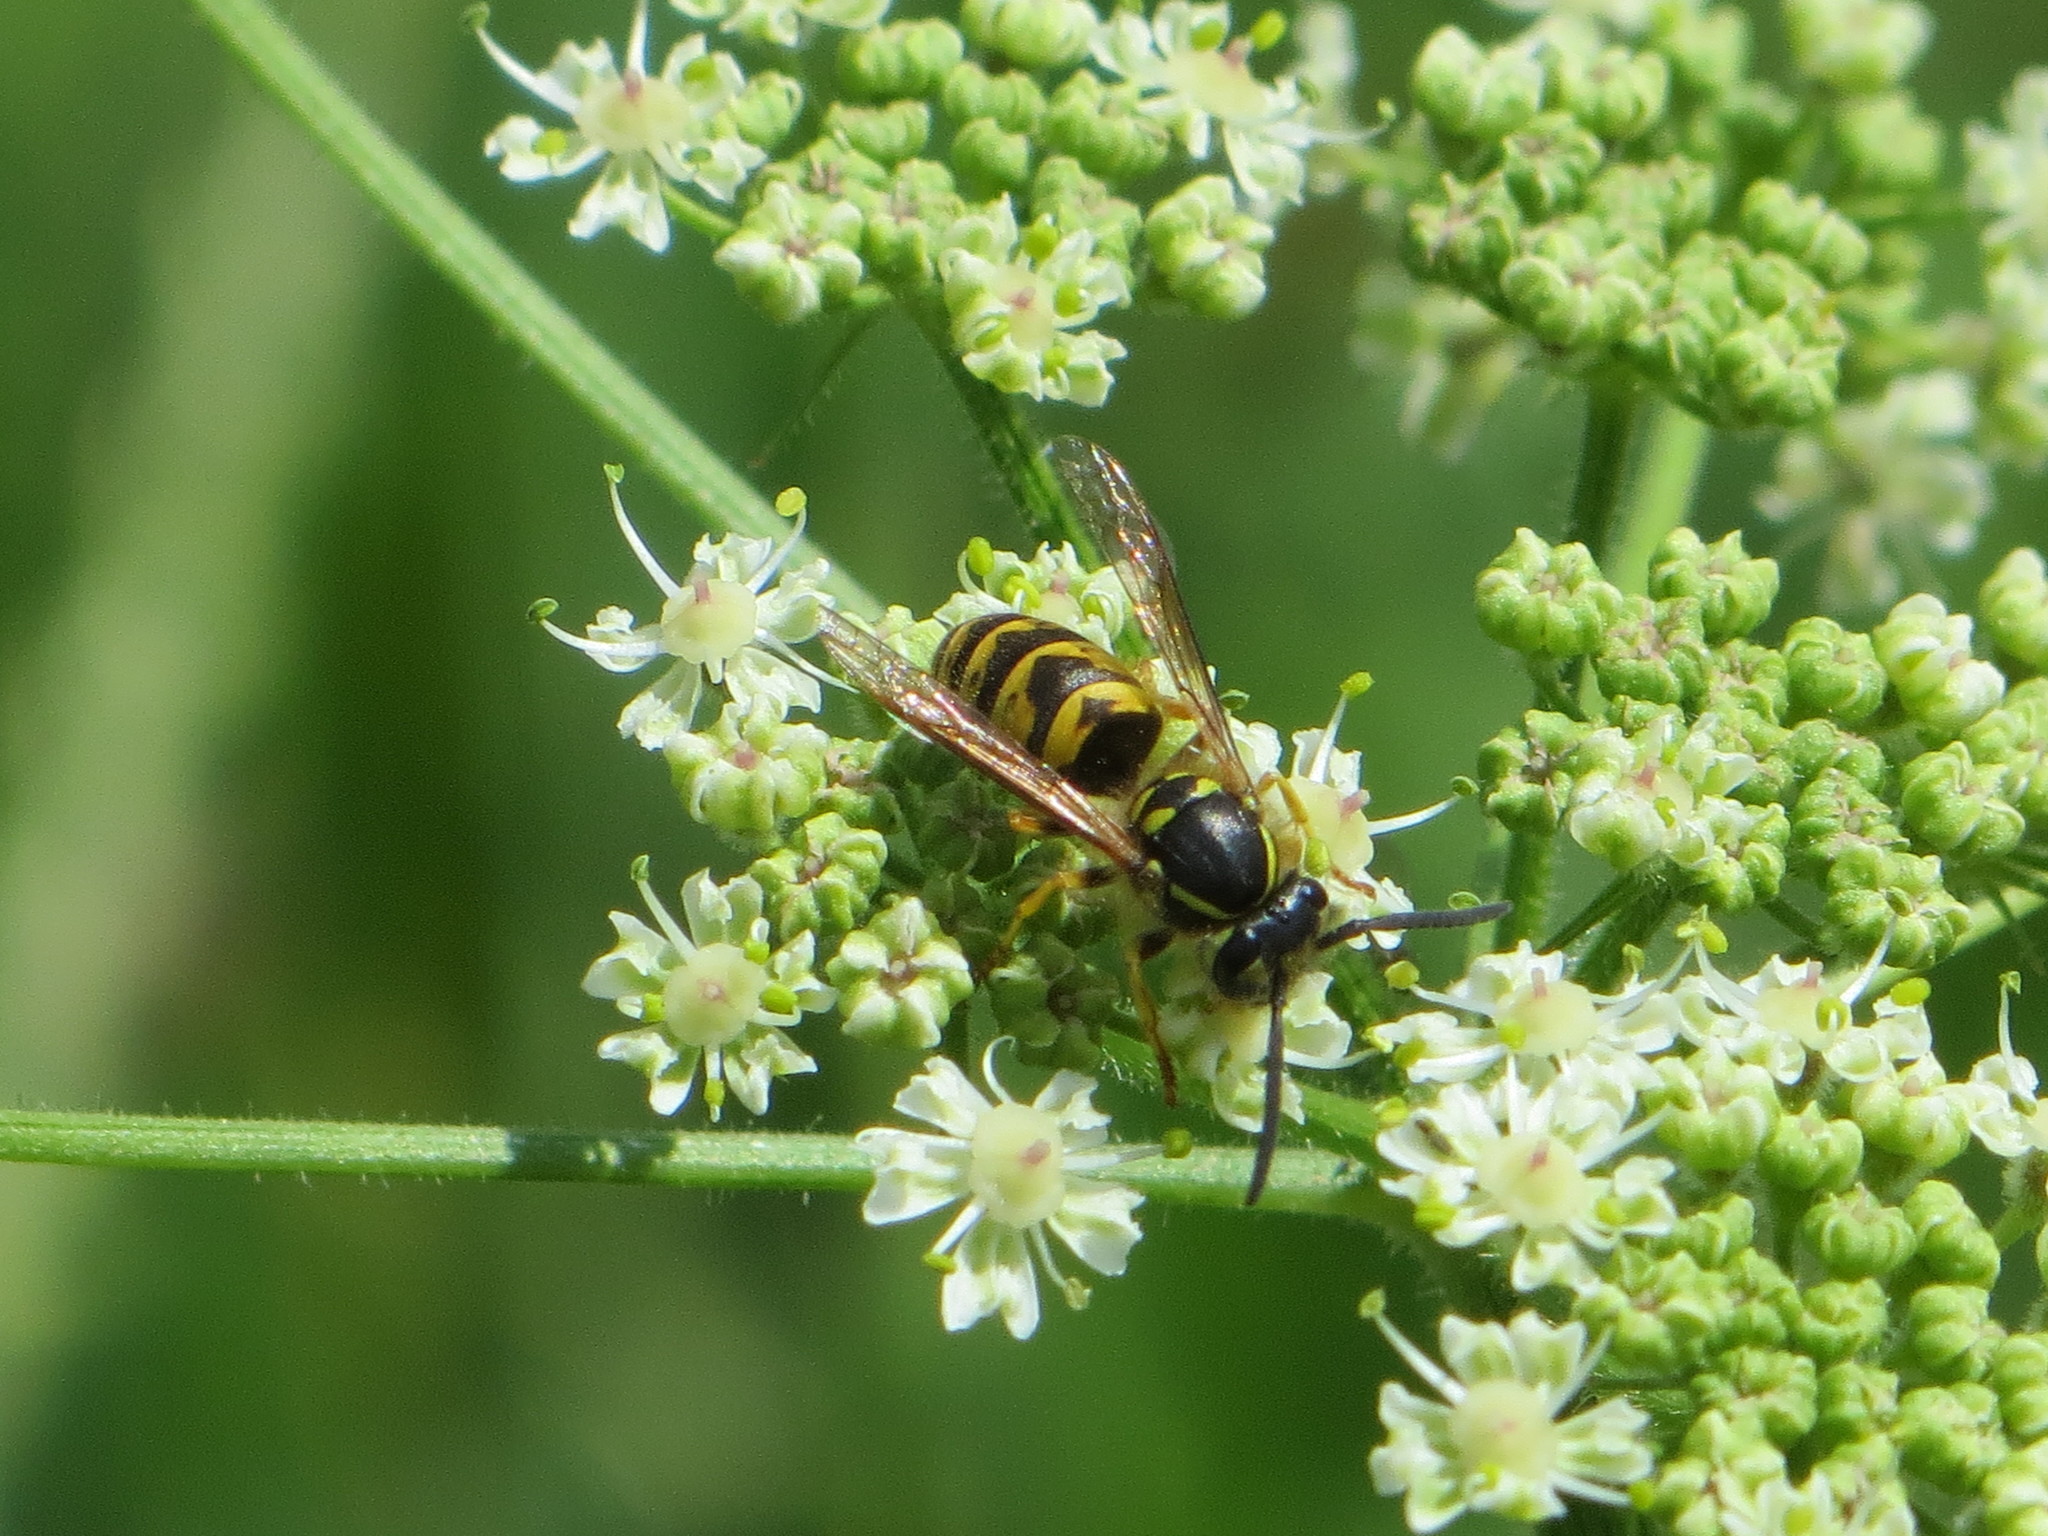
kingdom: Animalia
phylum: Arthropoda
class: Insecta
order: Hymenoptera
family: Vespidae
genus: Vespula
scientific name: Vespula vulgaris
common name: Common wasp
